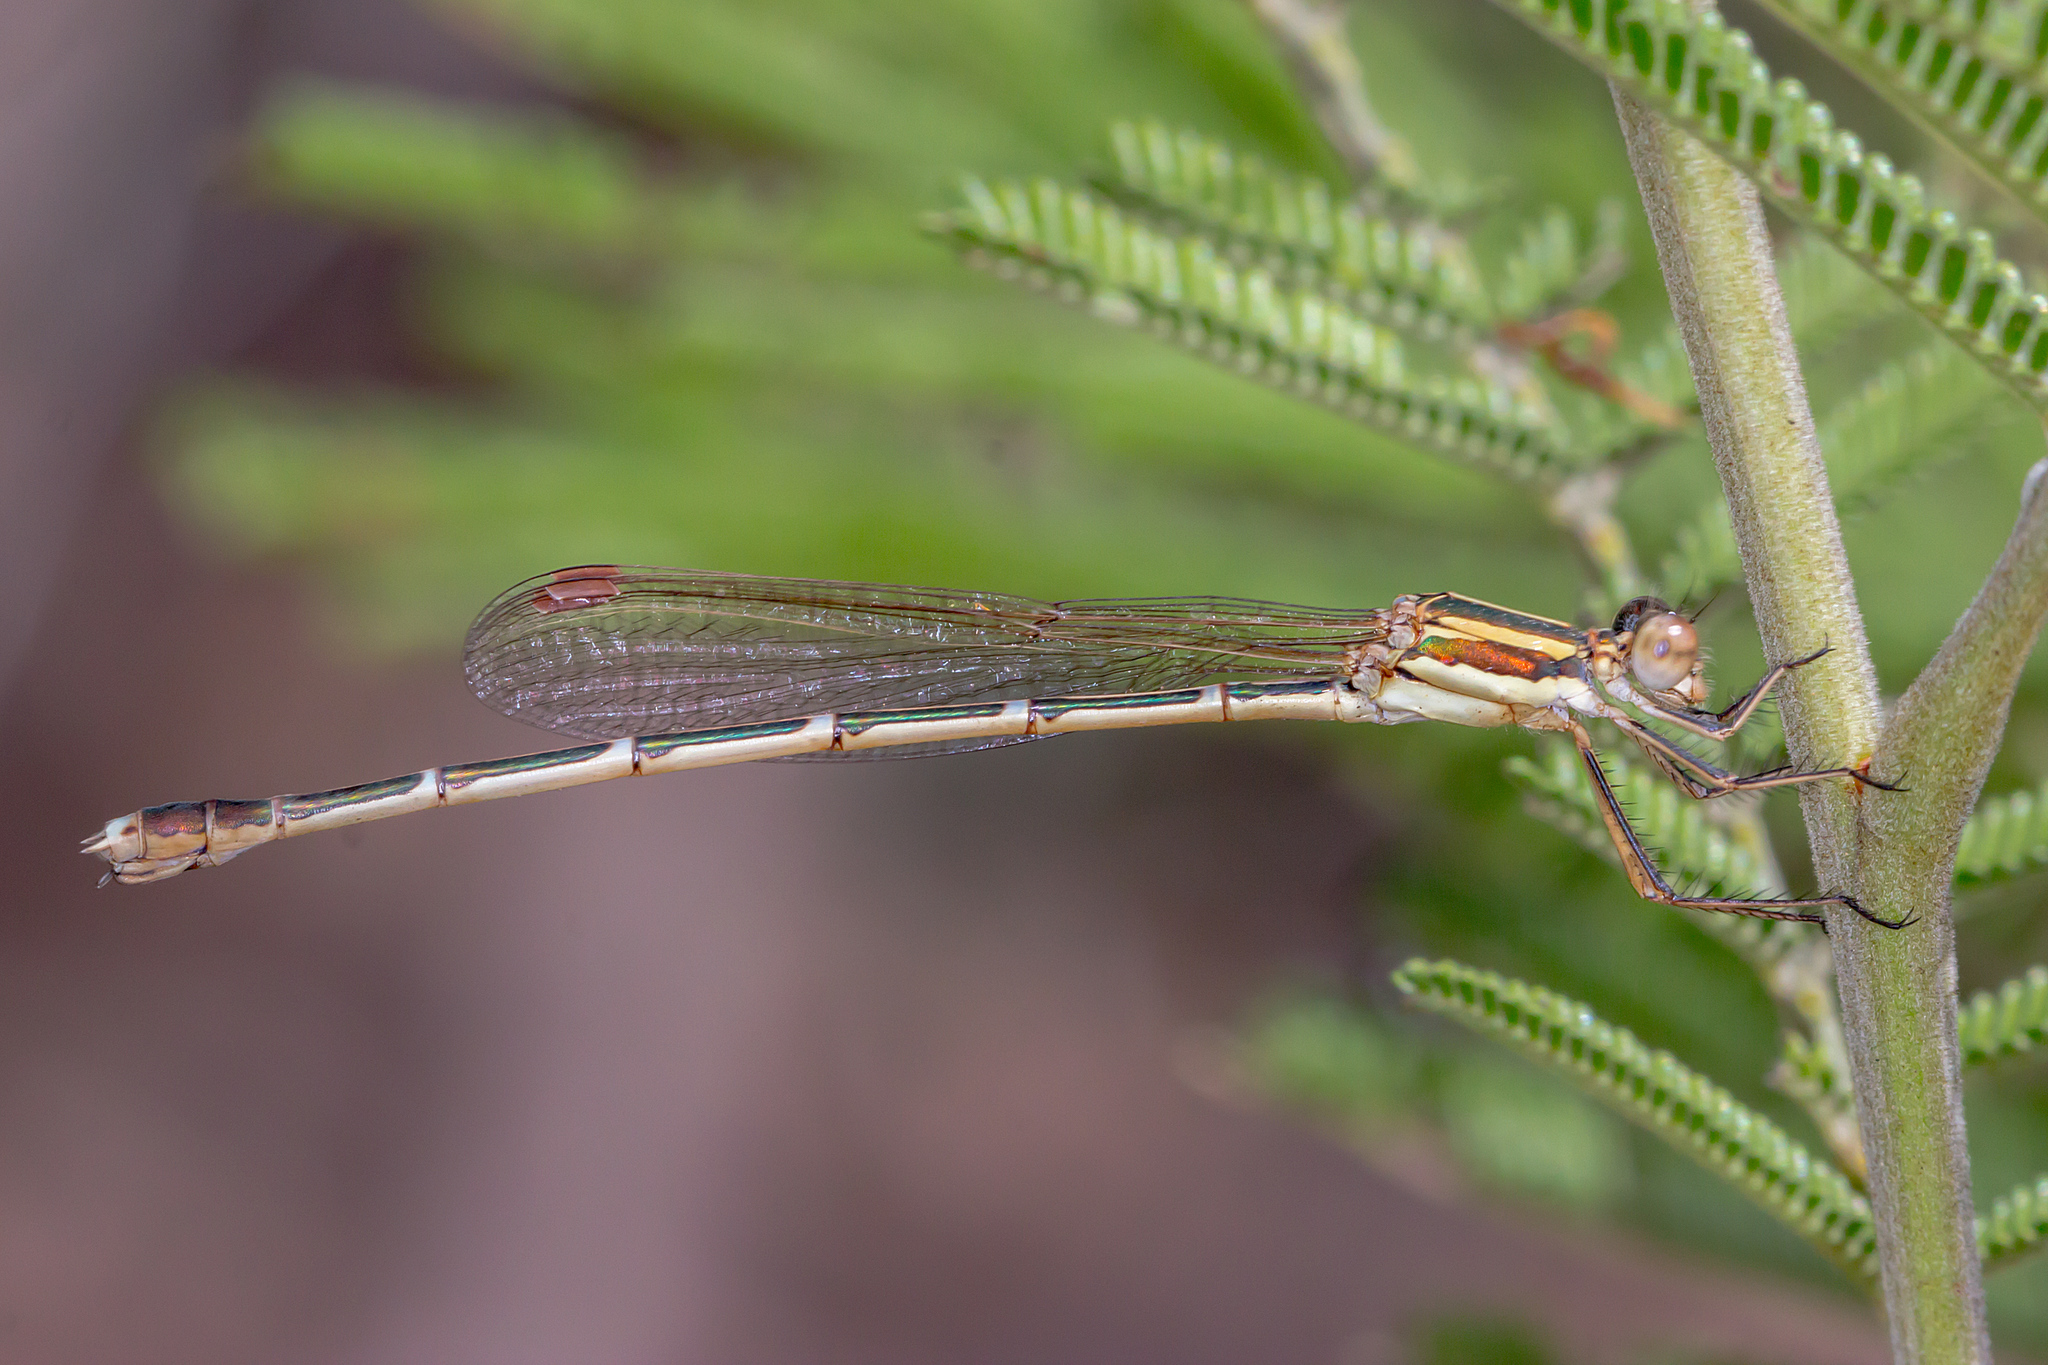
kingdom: Animalia
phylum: Arthropoda
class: Insecta
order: Odonata
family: Lestidae
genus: Austrolestes
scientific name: Austrolestes analis
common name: Slender ringtail
